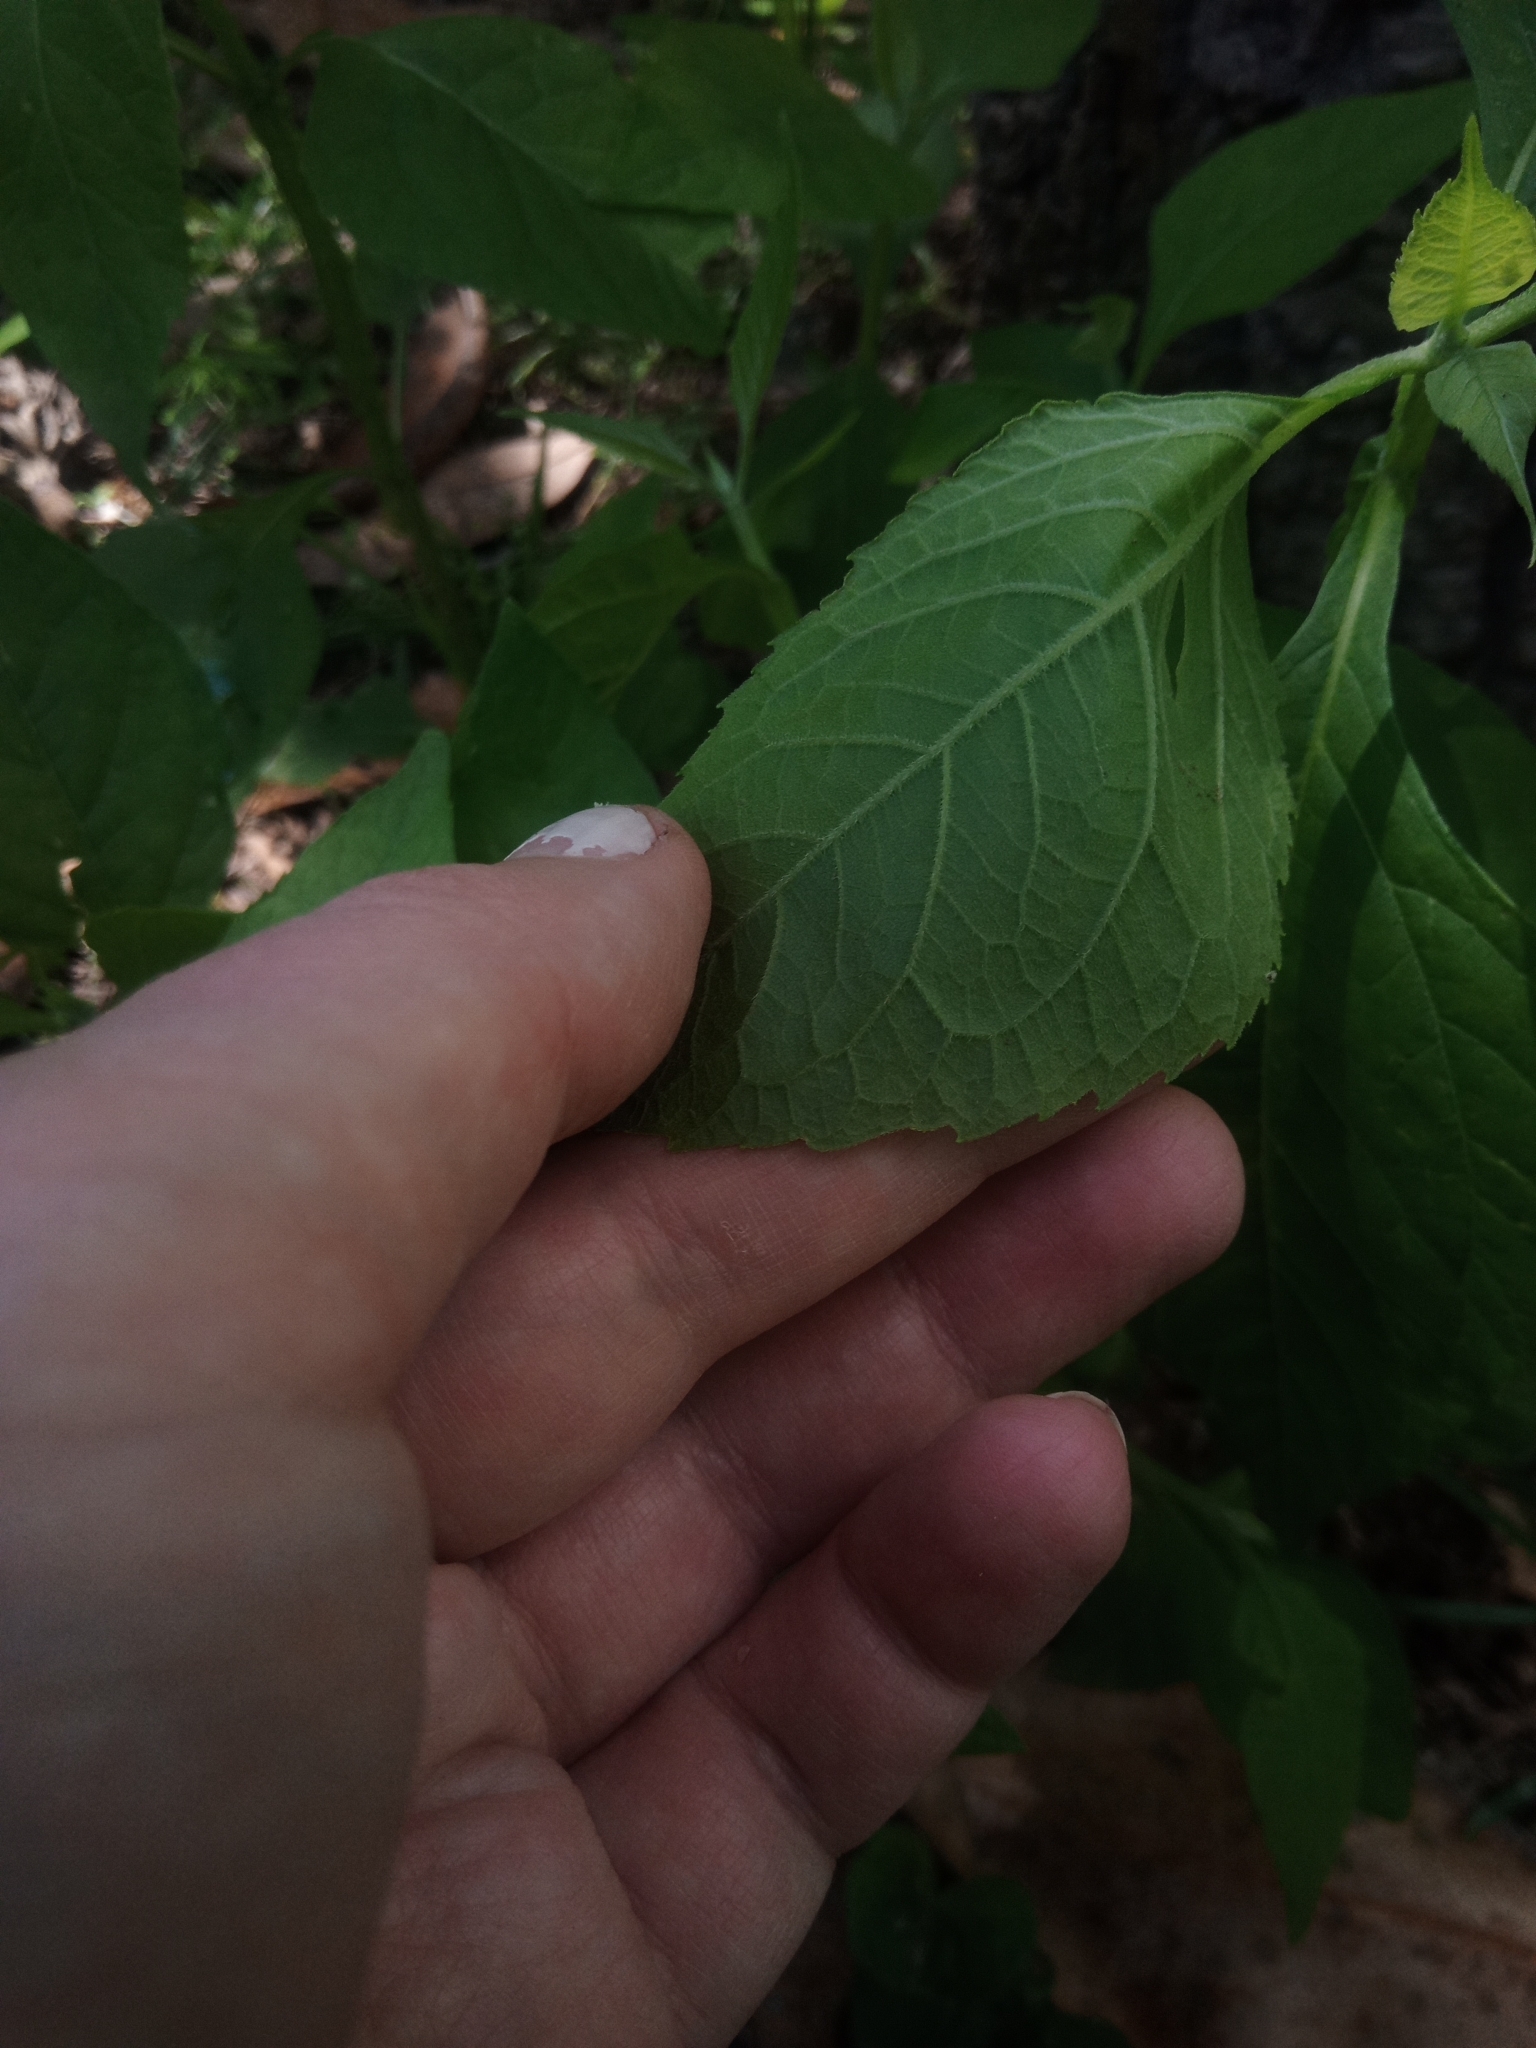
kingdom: Plantae
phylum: Tracheophyta
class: Magnoliopsida
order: Asterales
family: Asteraceae
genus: Verbesina
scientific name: Verbesina occidentalis
